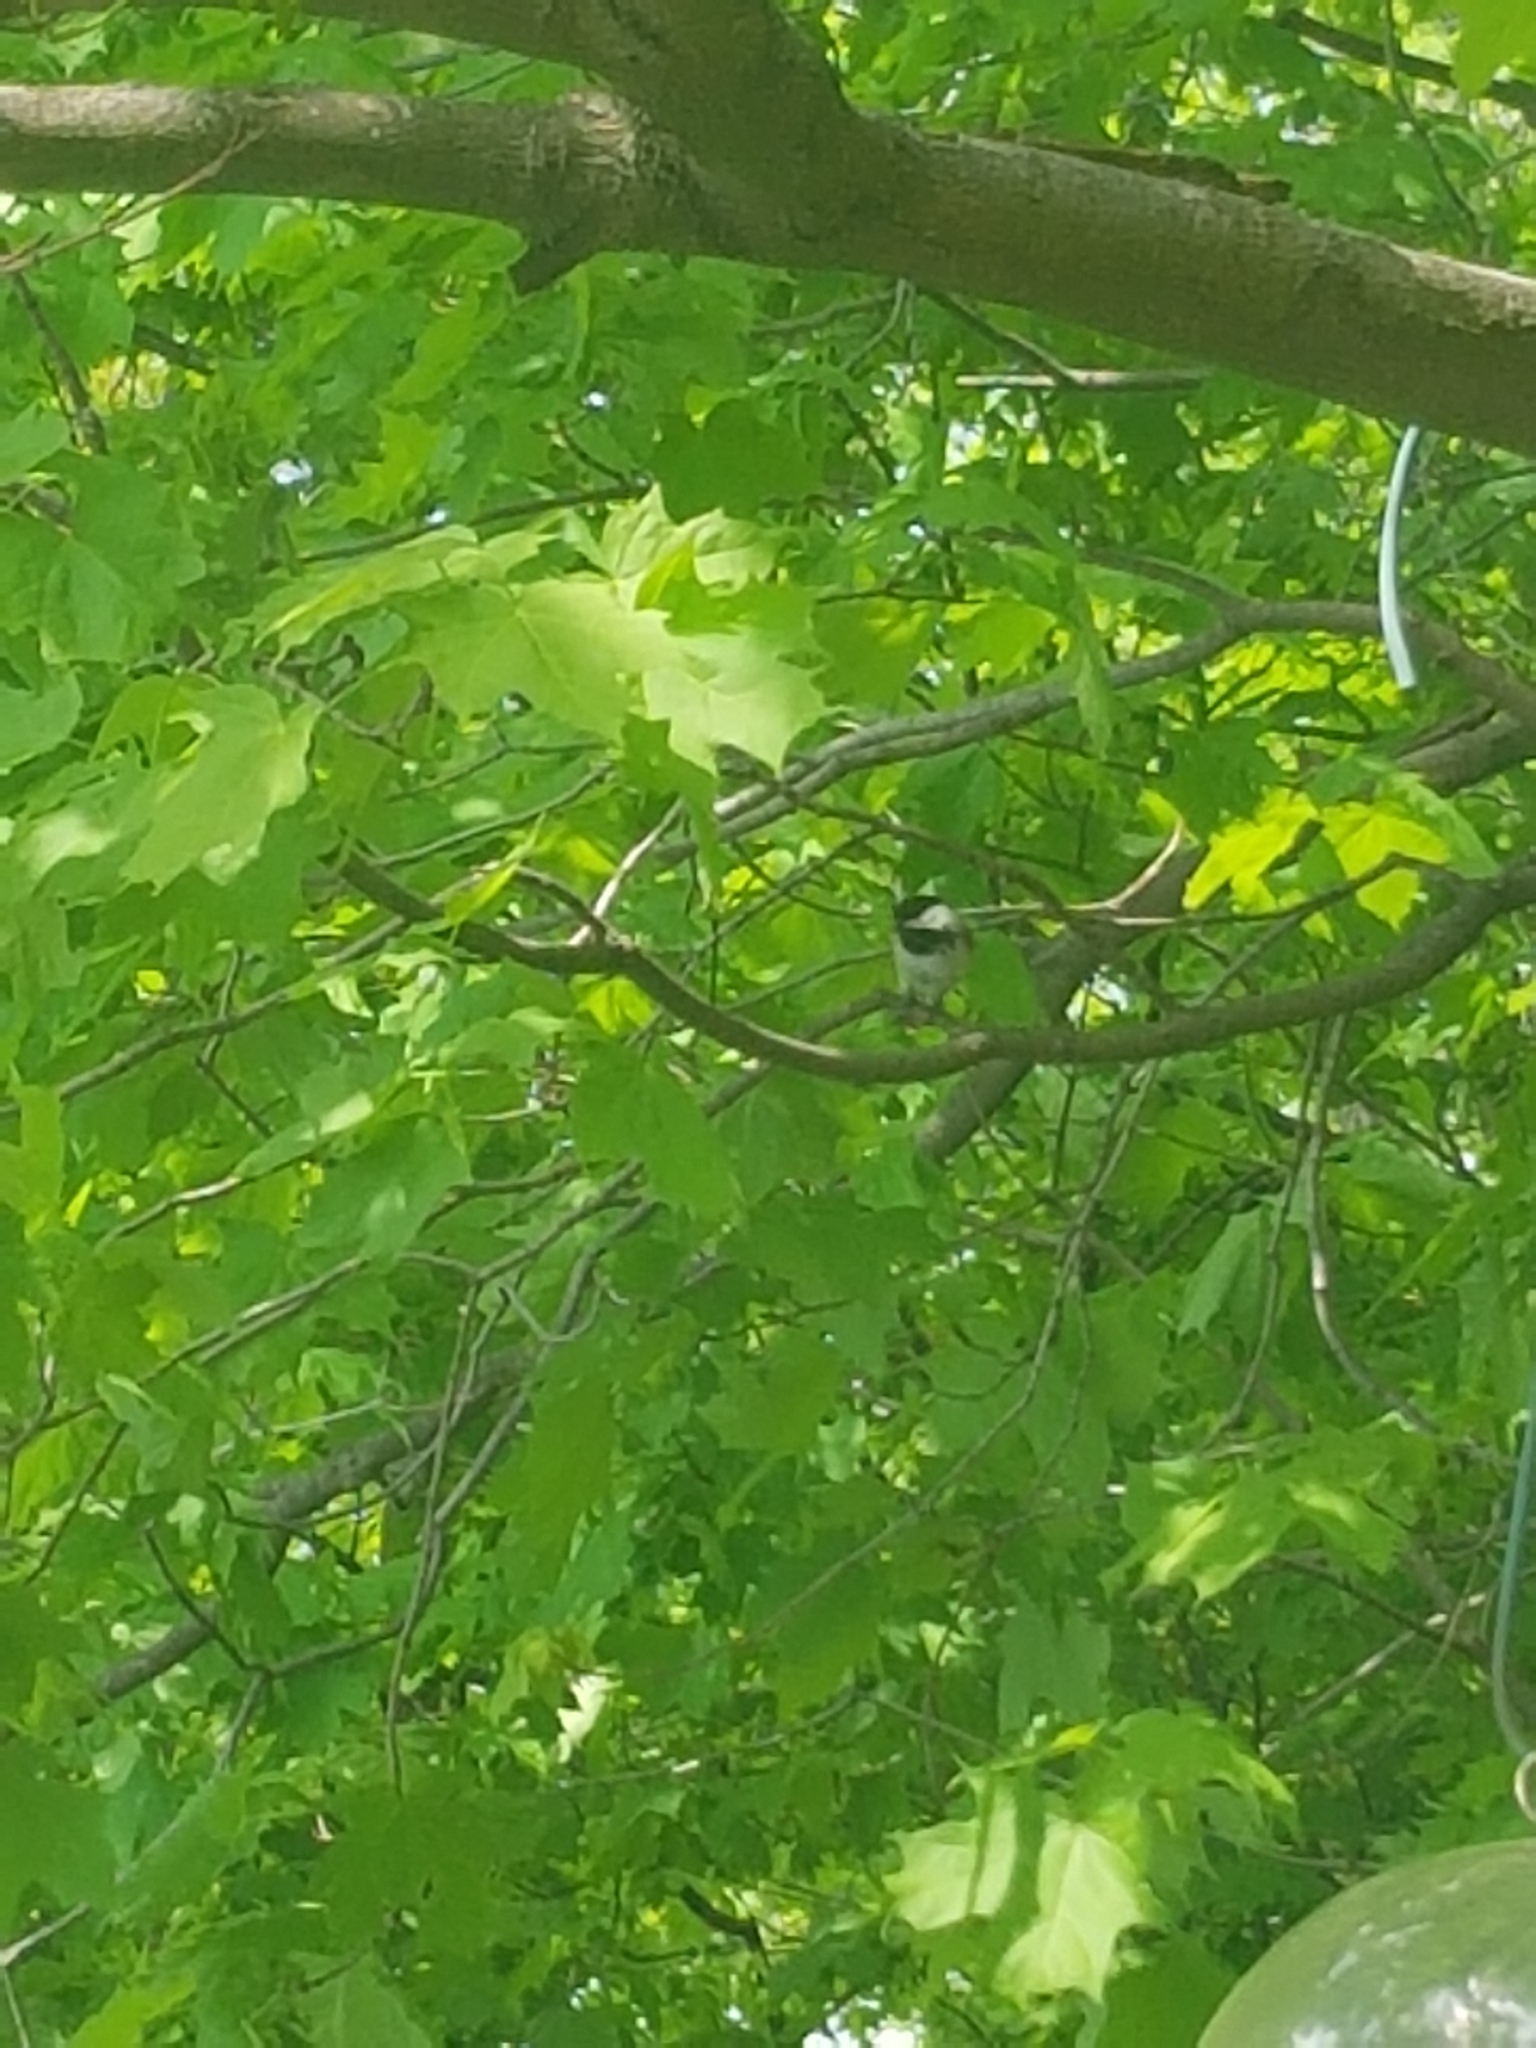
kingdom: Animalia
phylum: Chordata
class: Aves
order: Passeriformes
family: Paridae
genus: Poecile
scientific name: Poecile atricapillus
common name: Black-capped chickadee
